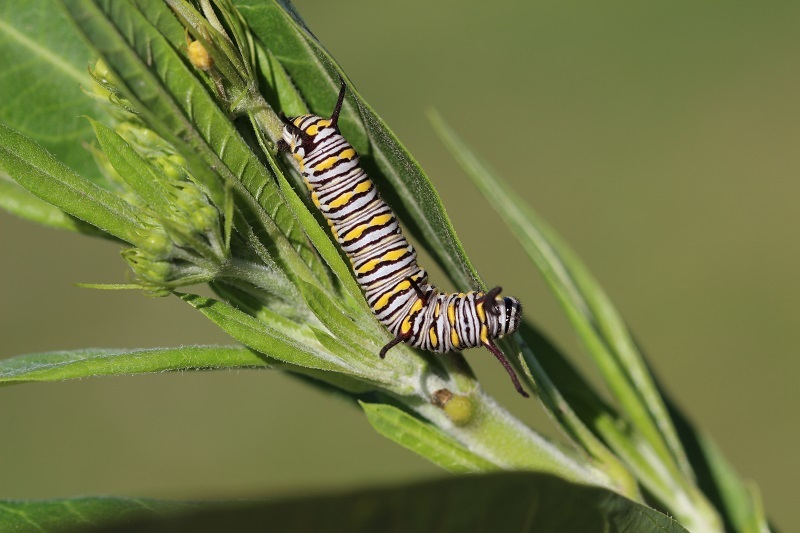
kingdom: Animalia
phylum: Arthropoda
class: Insecta
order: Lepidoptera
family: Nymphalidae
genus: Danaus
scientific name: Danaus chrysippus
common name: Plain tiger
